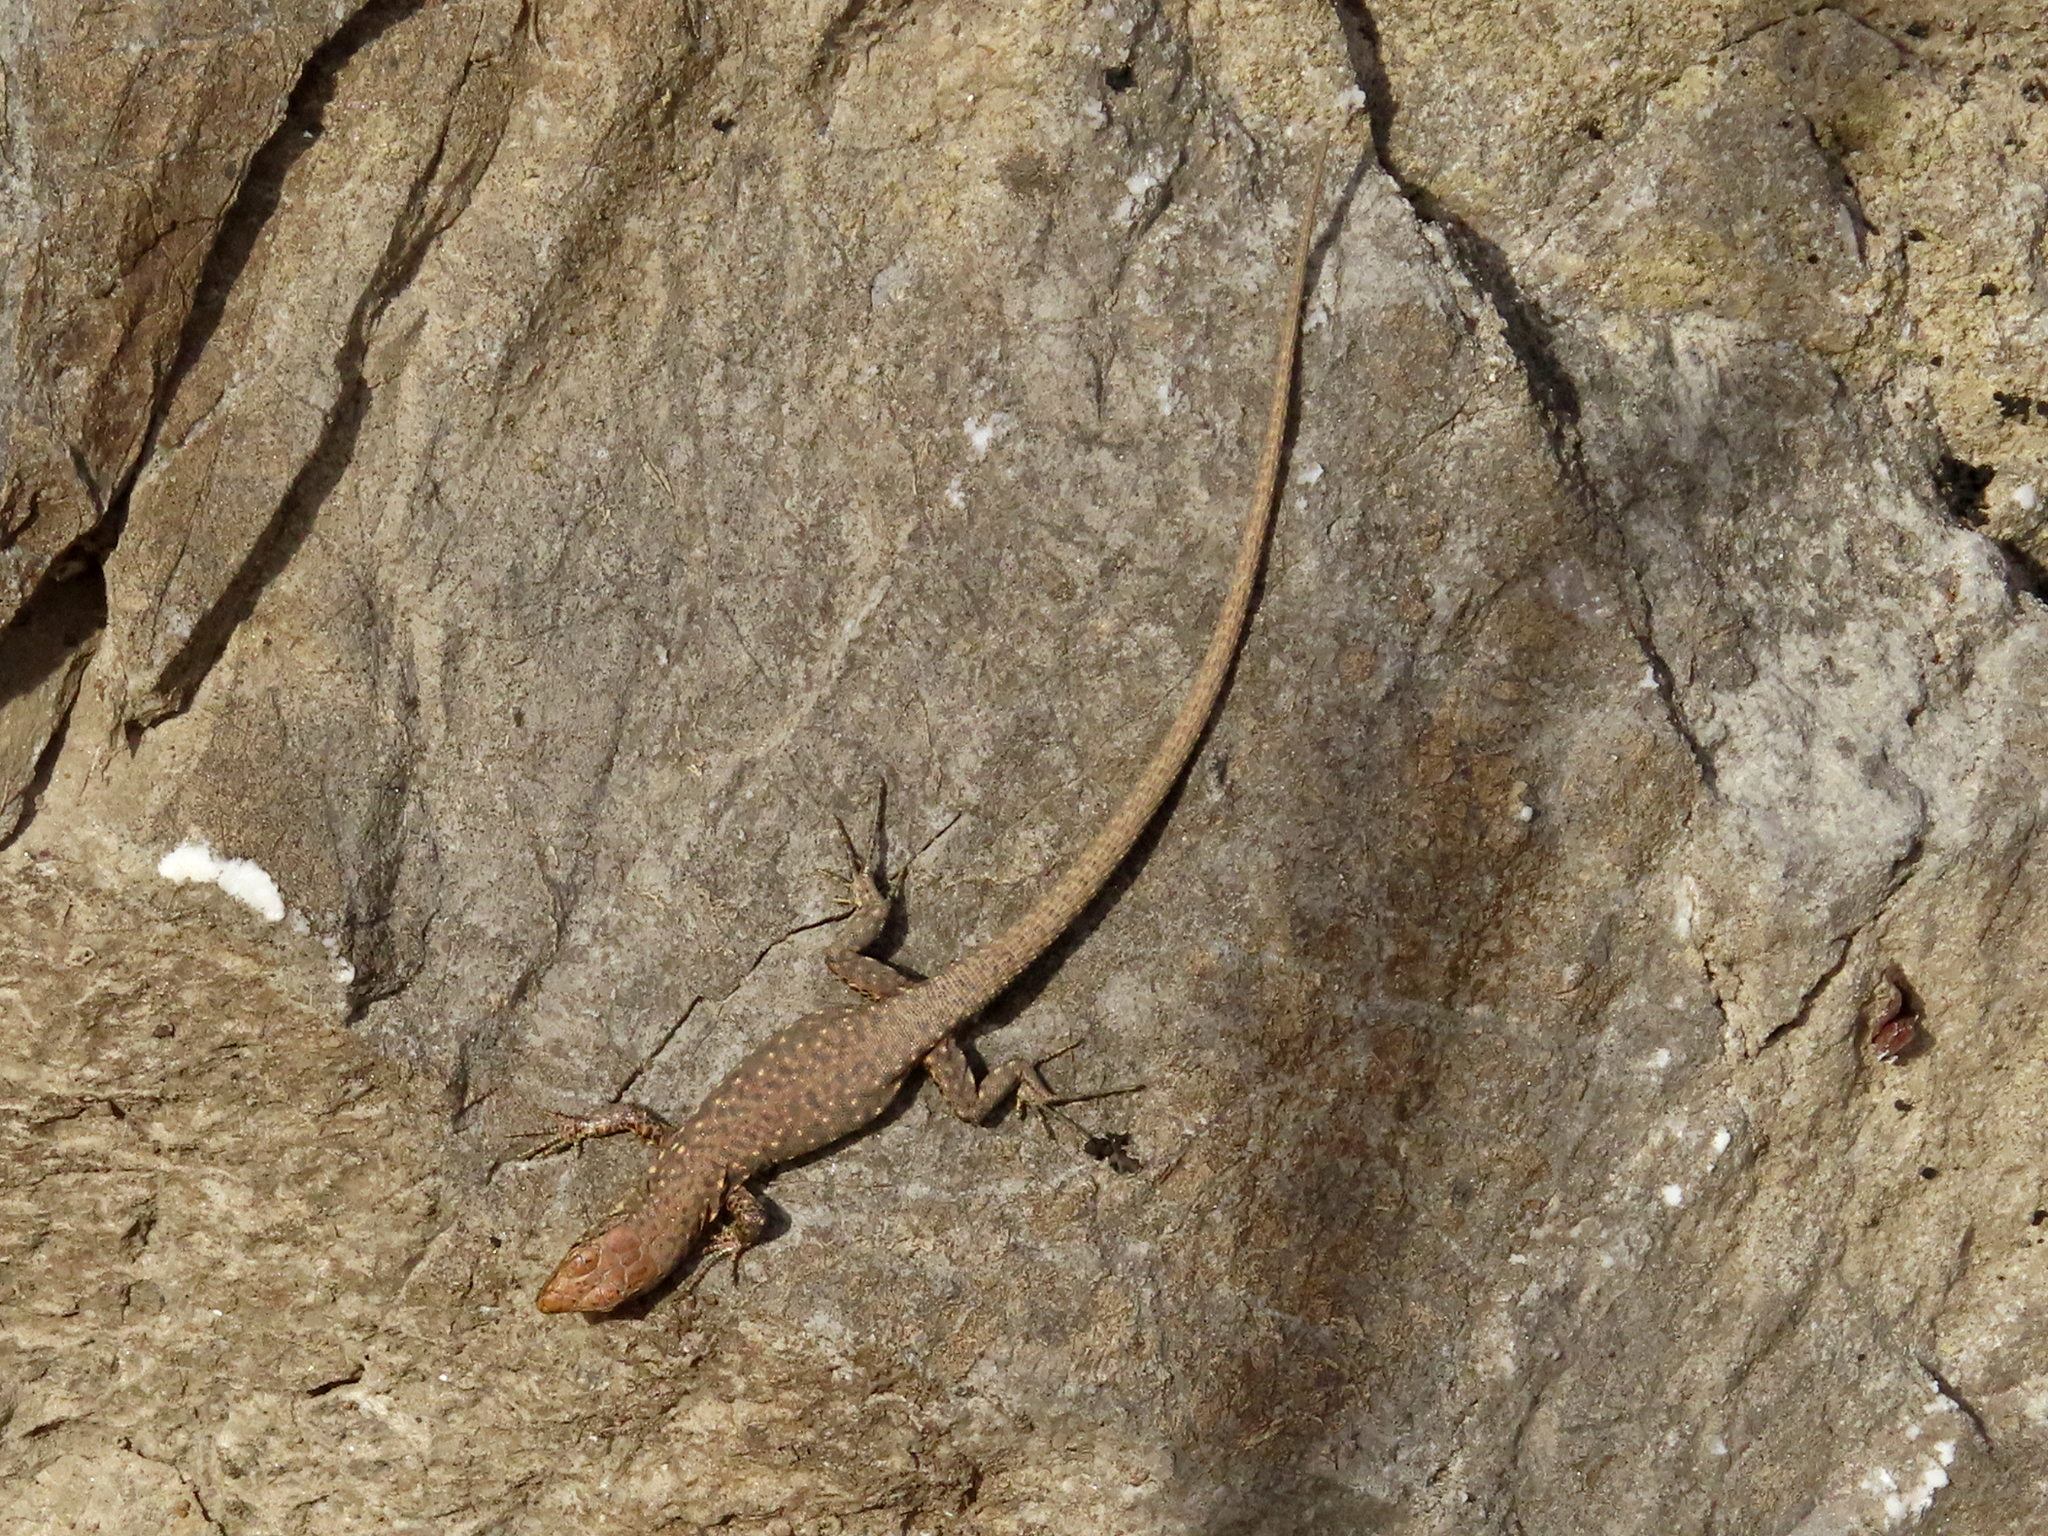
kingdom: Animalia
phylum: Chordata
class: Squamata
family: Lacertidae
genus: Darevskia
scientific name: Darevskia bithynica
